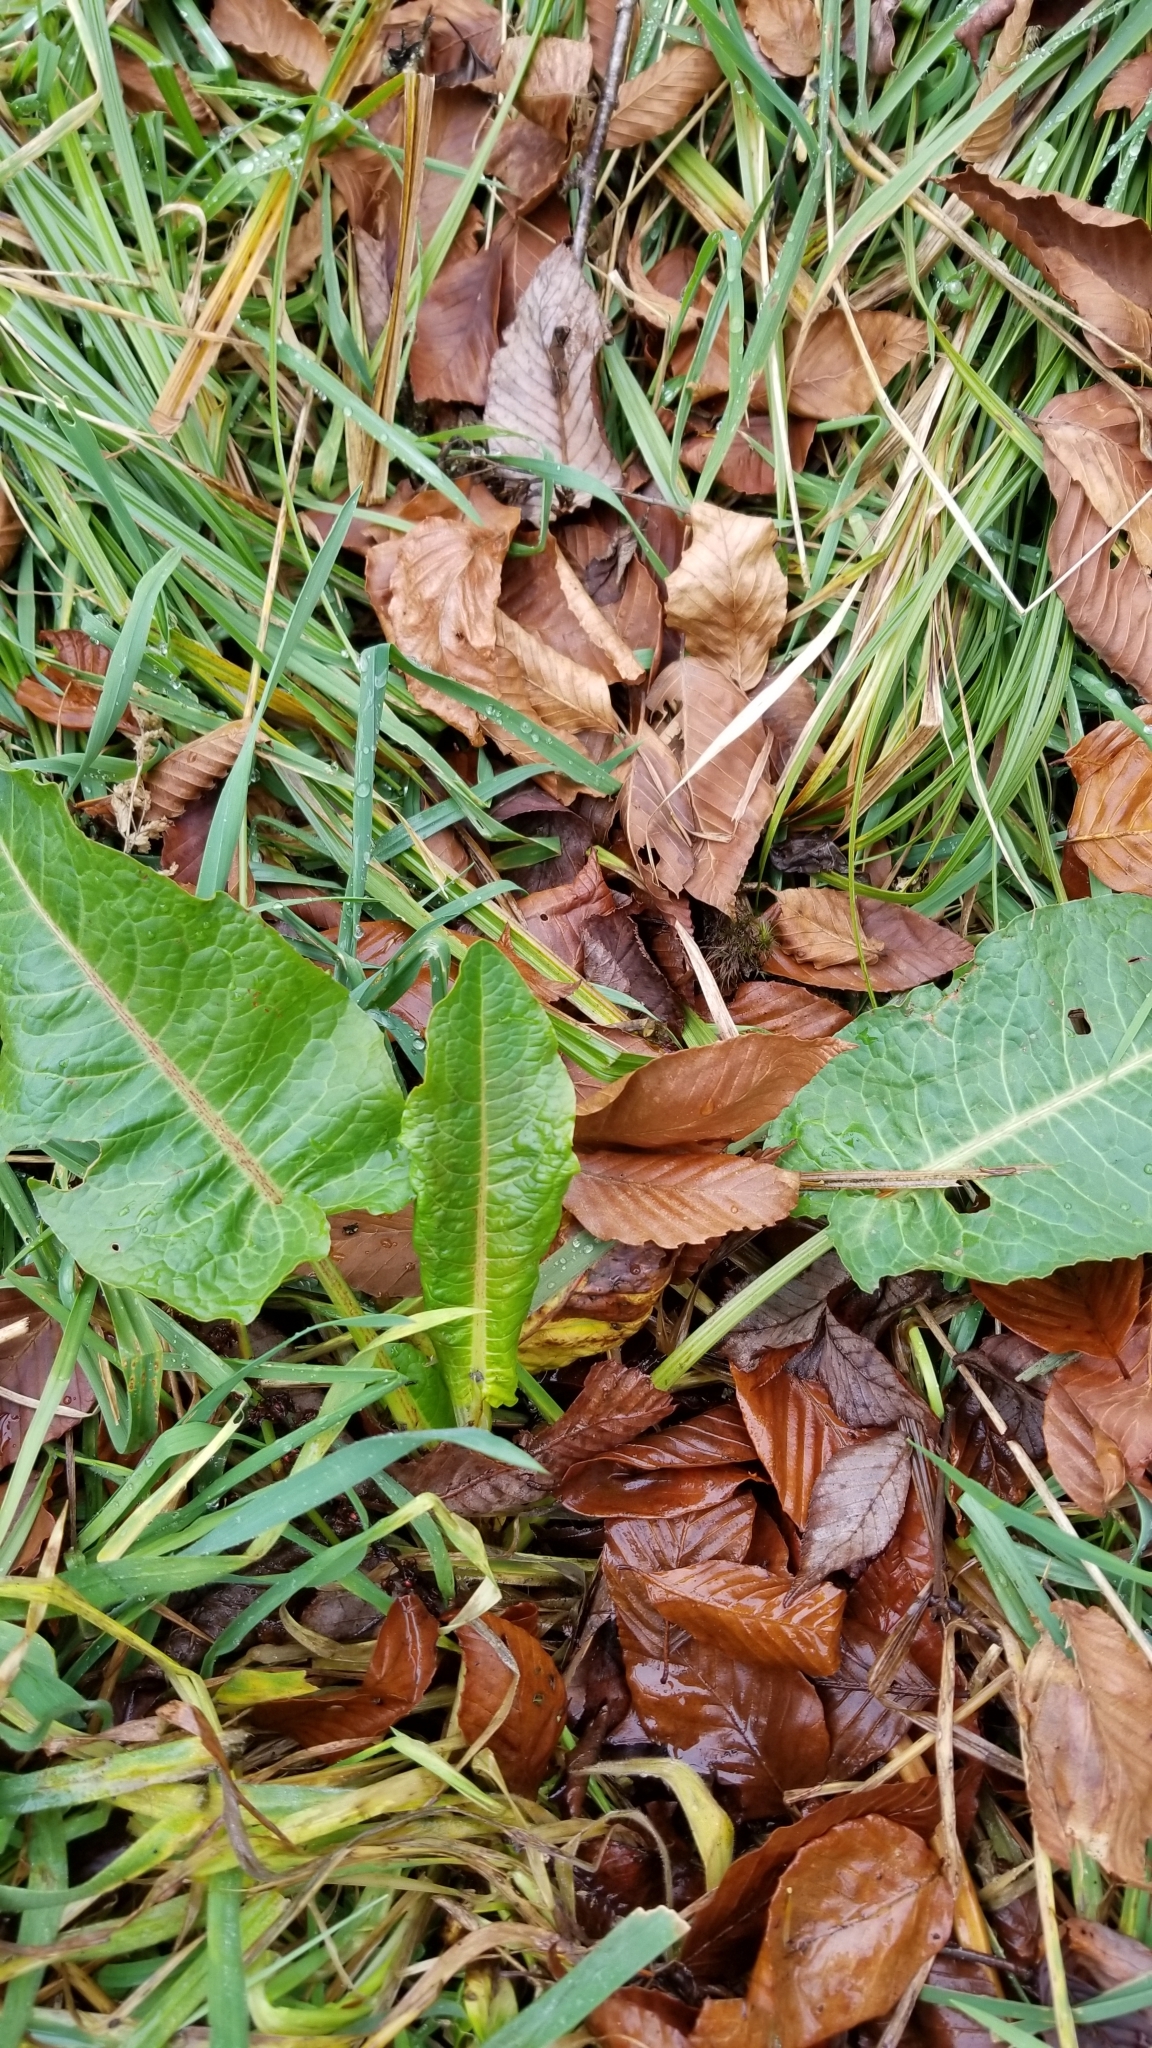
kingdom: Plantae
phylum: Tracheophyta
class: Magnoliopsida
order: Caryophyllales
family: Polygonaceae
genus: Rumex
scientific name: Rumex obtusifolius
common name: Bitter dock
